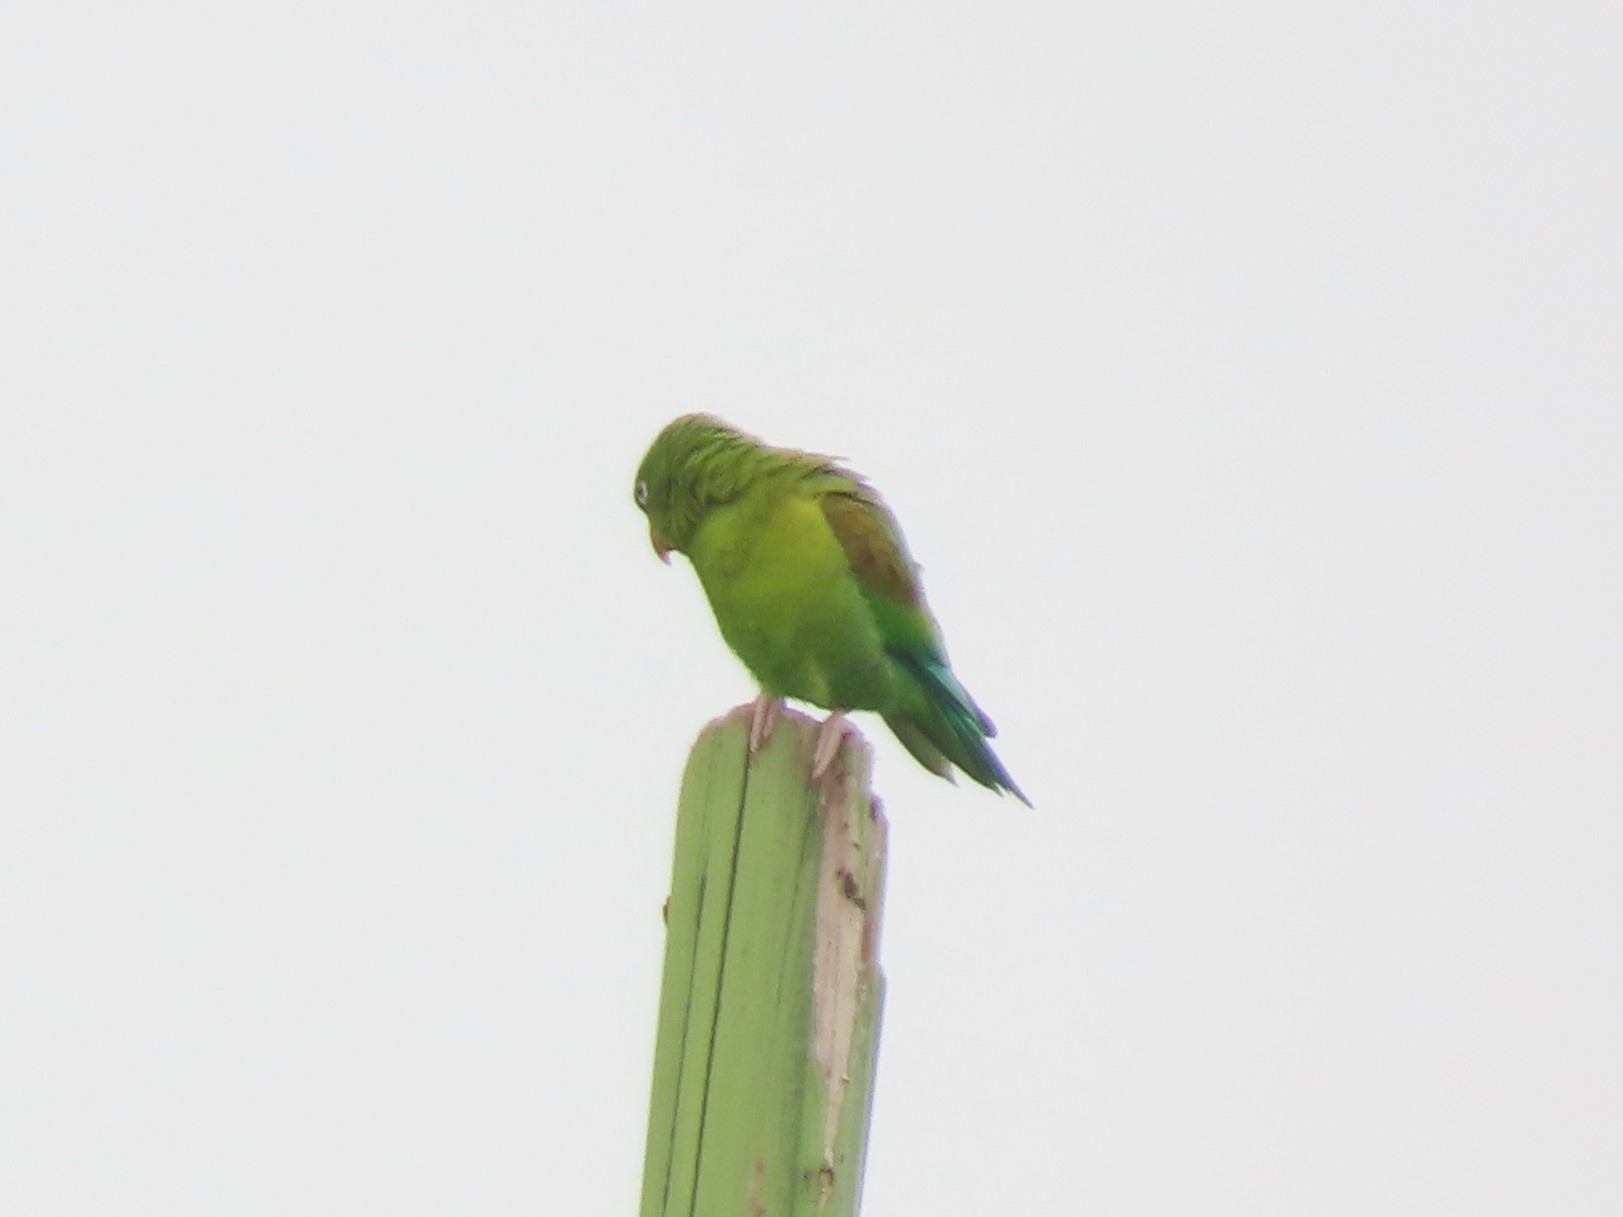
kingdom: Animalia
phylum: Chordata
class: Aves
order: Psittaciformes
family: Psittacidae
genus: Brotogeris
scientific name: Brotogeris jugularis
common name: Orange-chinned parakeet
